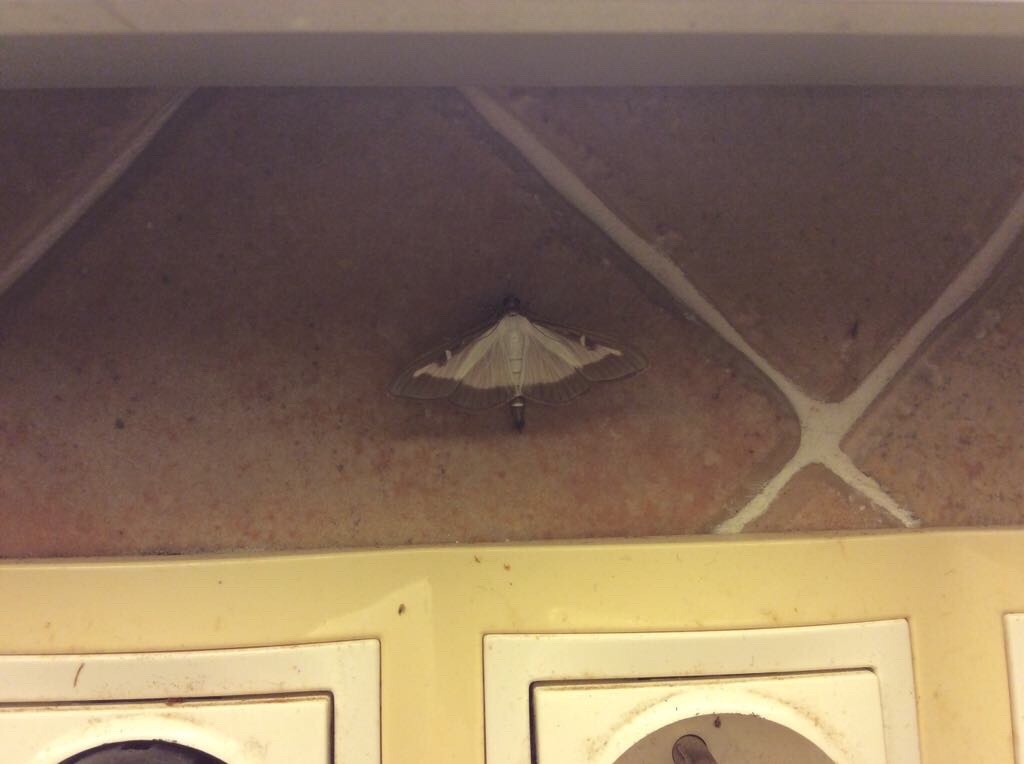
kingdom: Animalia
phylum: Arthropoda
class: Insecta
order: Lepidoptera
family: Crambidae
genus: Cydalima
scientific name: Cydalima perspectalis
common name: Box tree moth
